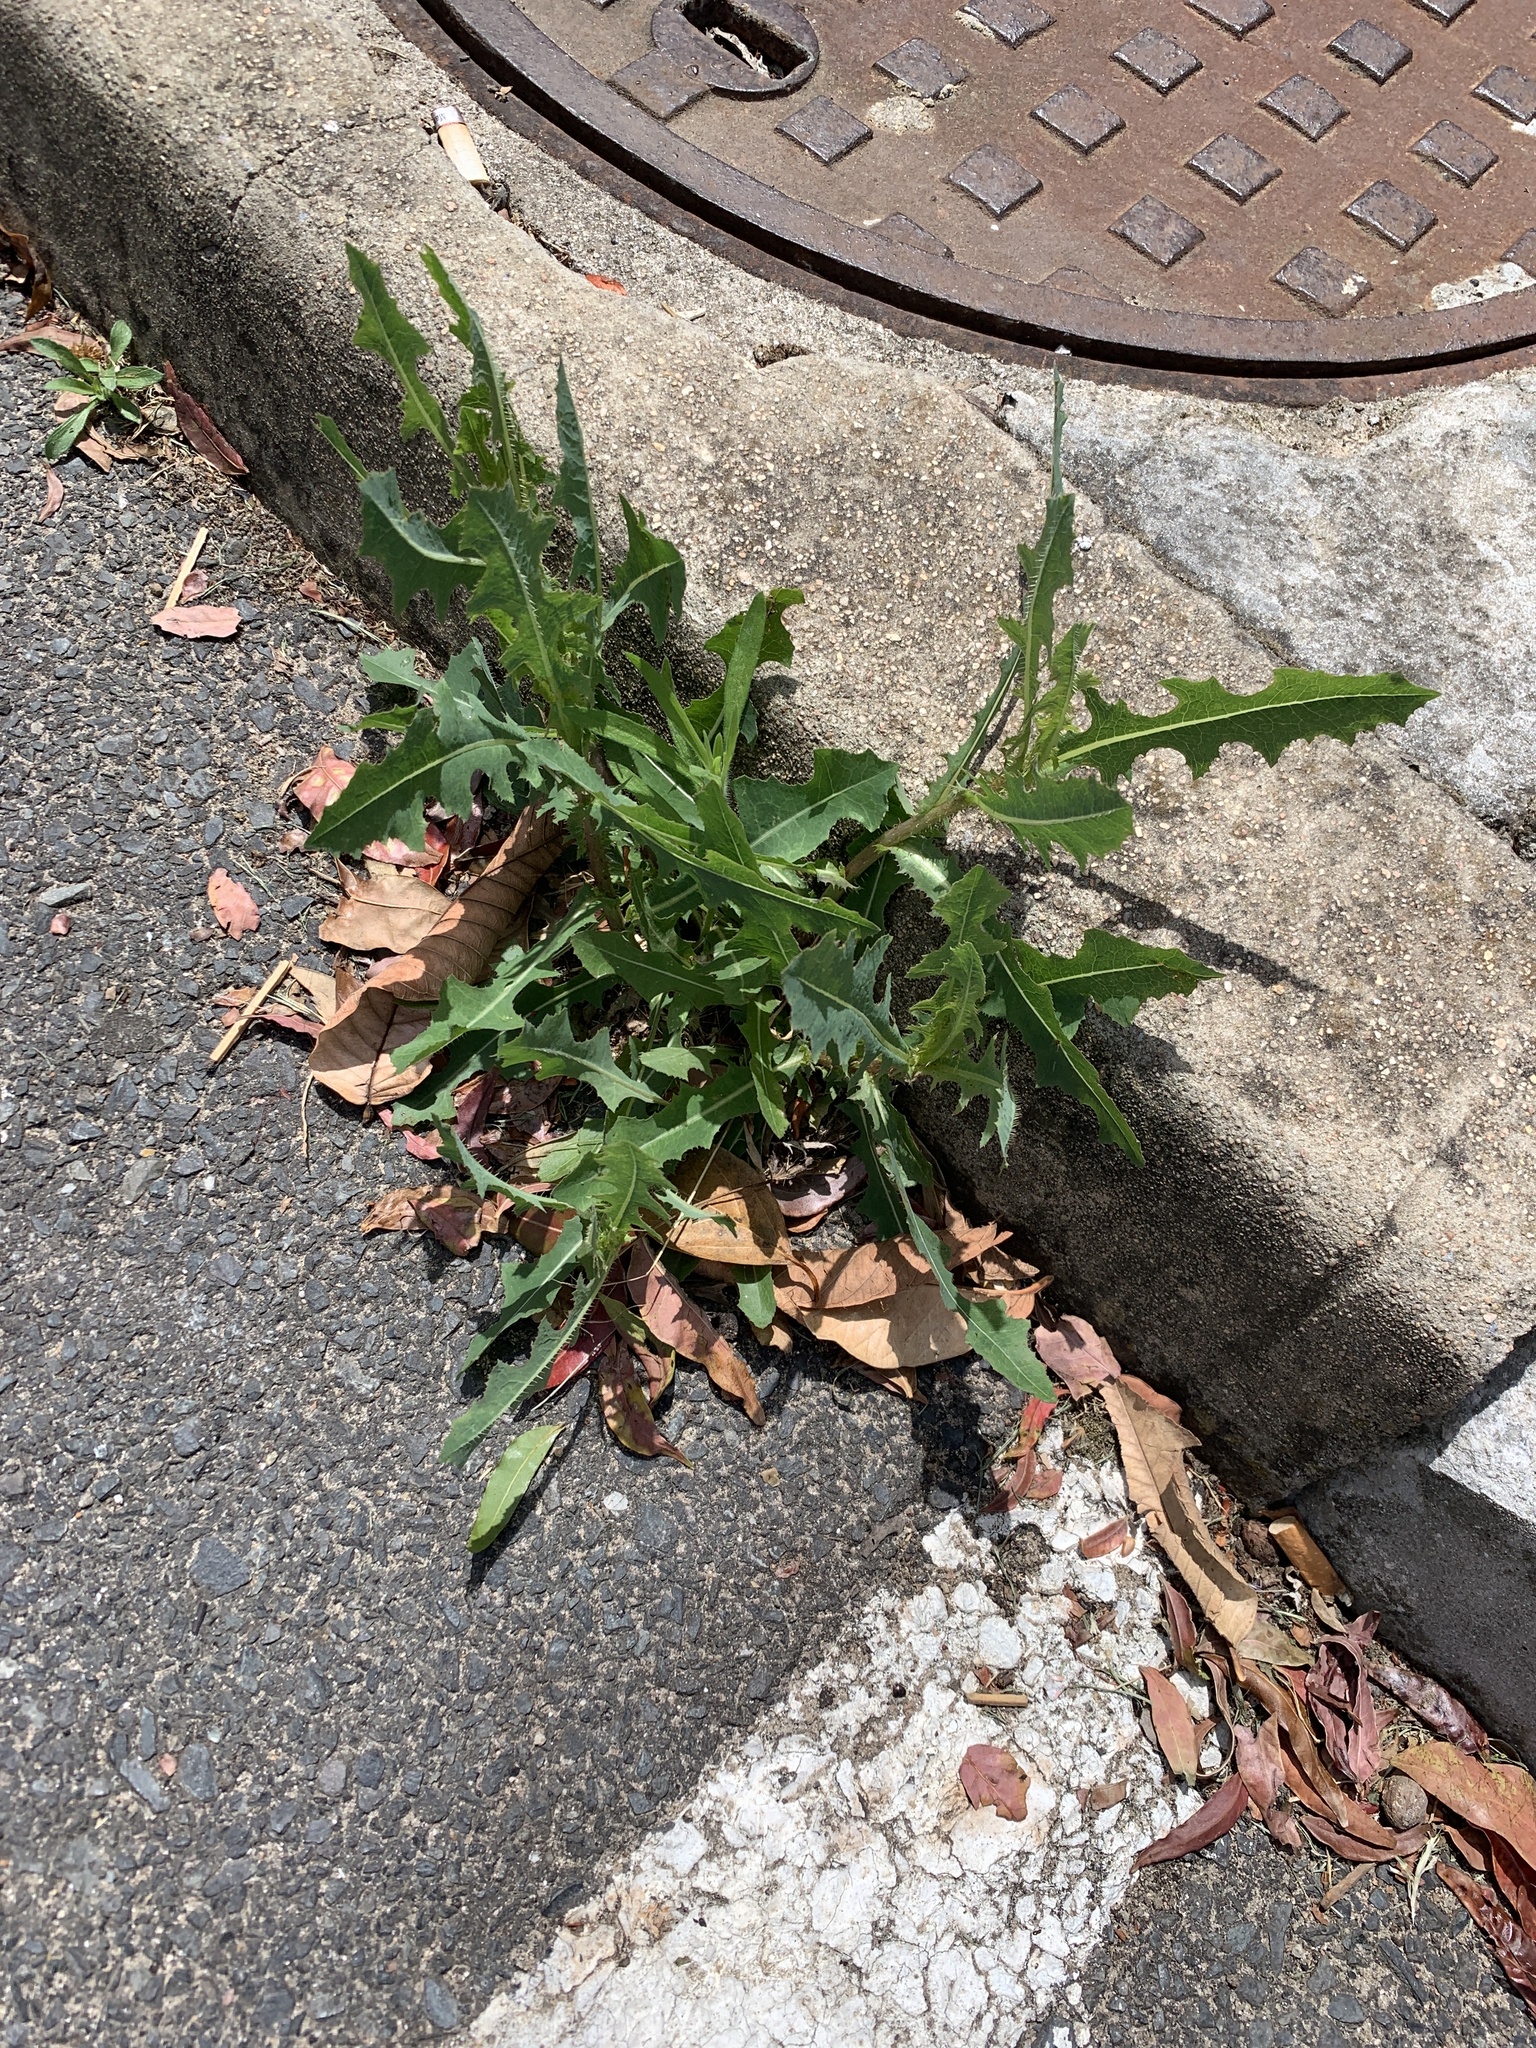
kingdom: Plantae
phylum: Tracheophyta
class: Magnoliopsida
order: Asterales
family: Asteraceae
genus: Lactuca
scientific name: Lactuca serriola
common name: Prickly lettuce
